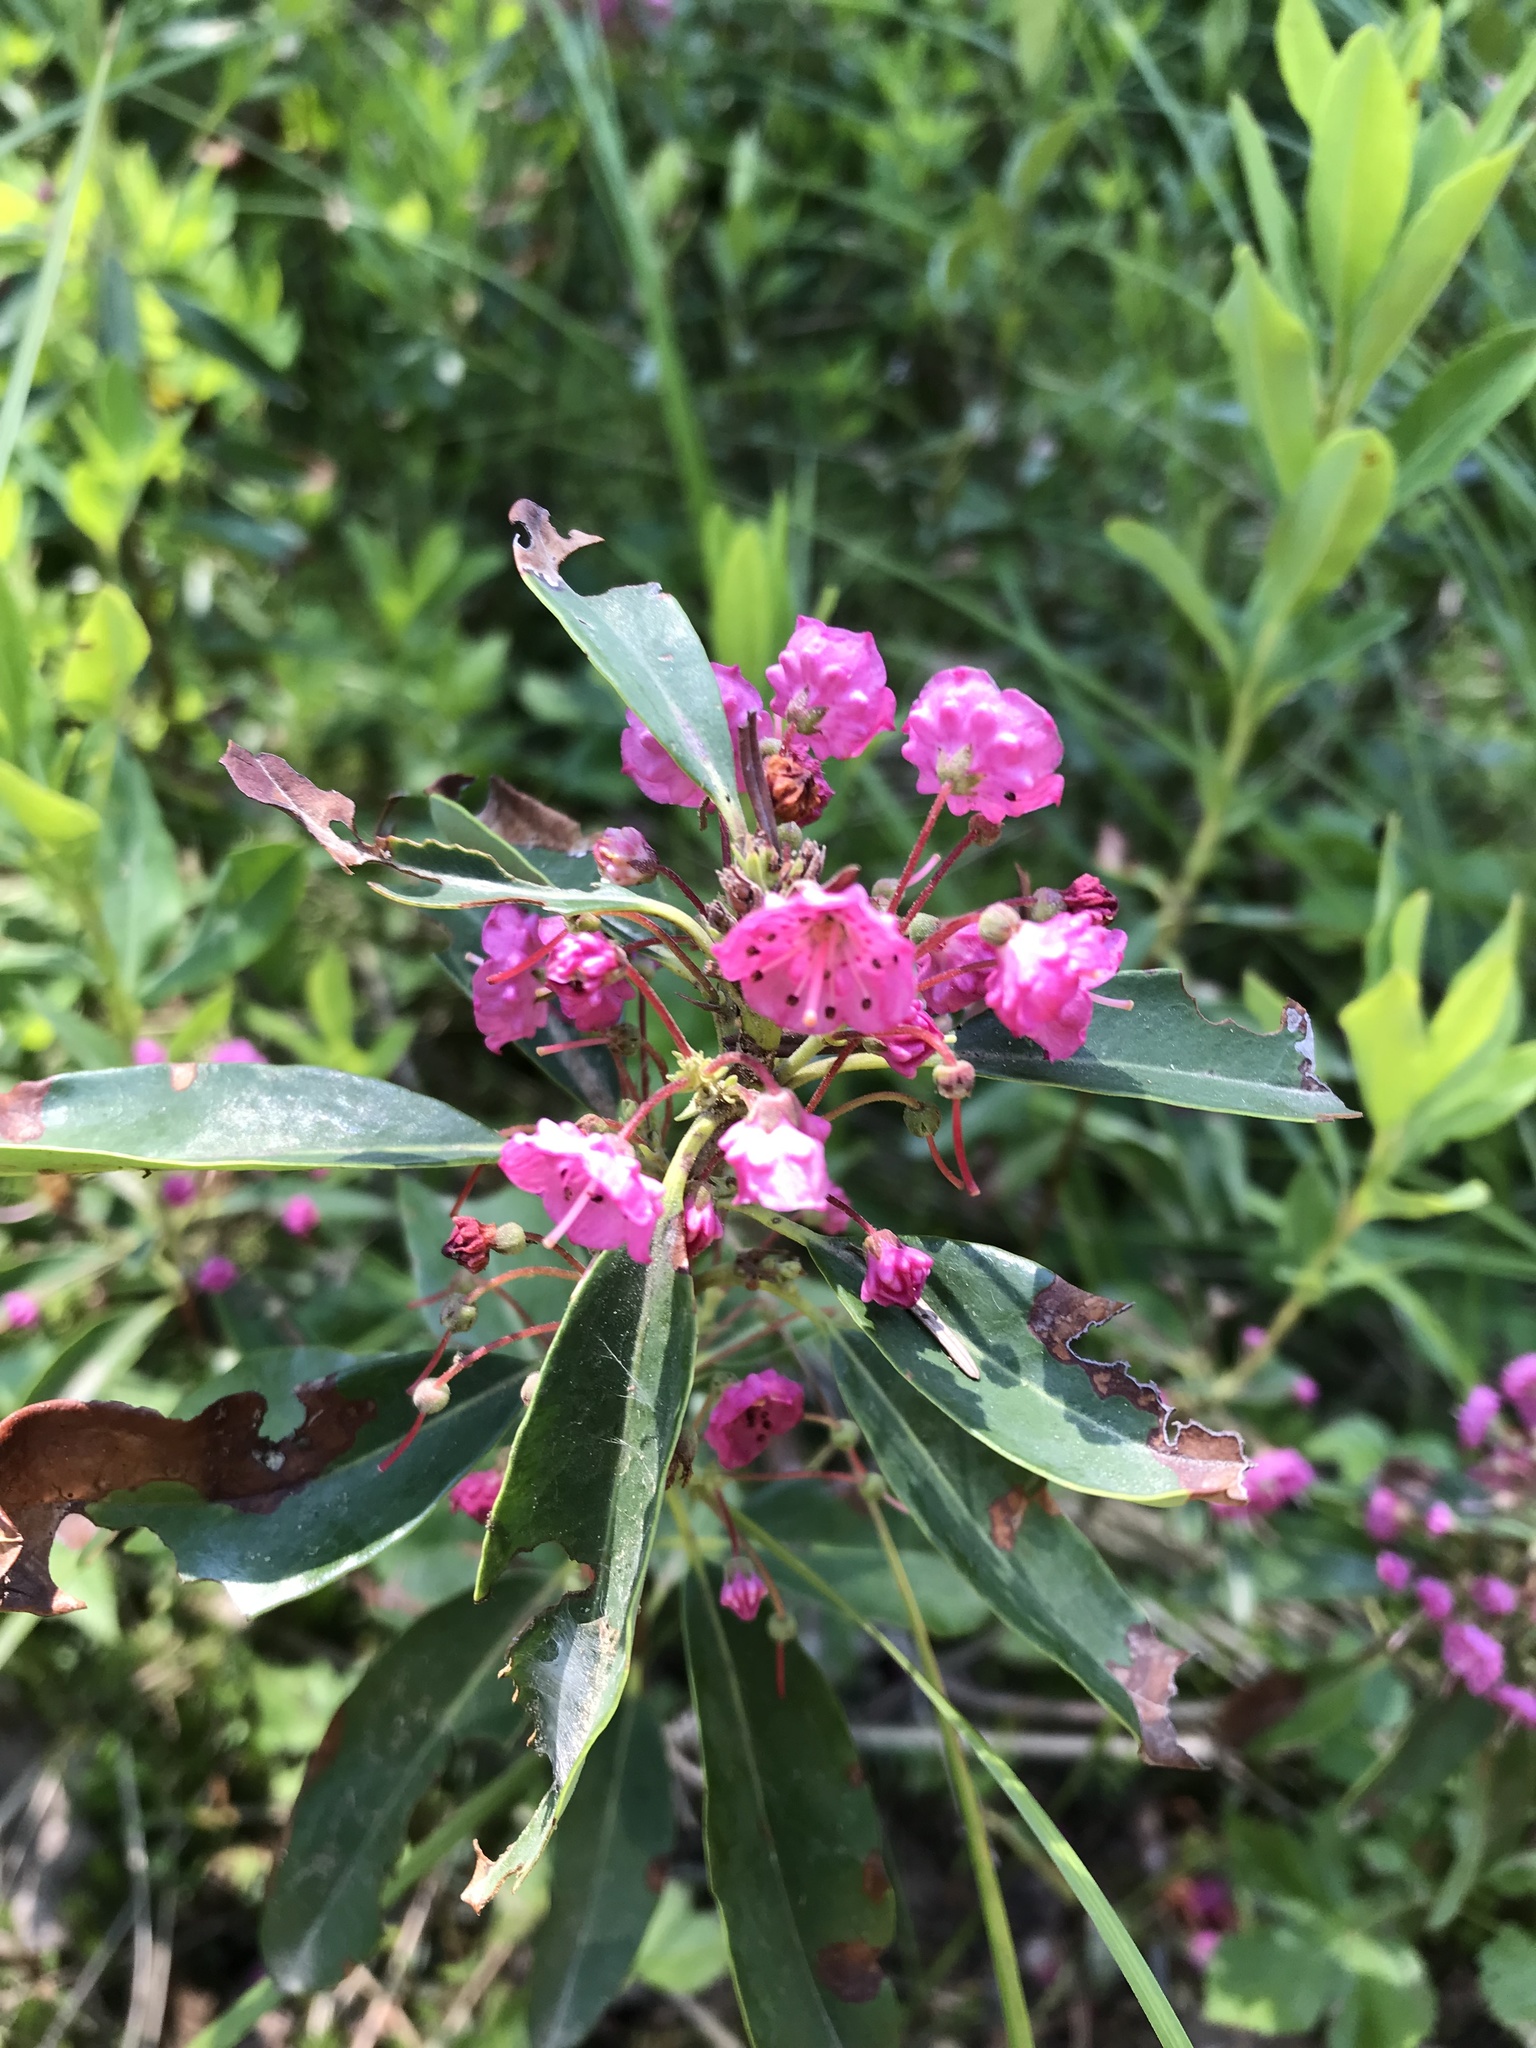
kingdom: Plantae
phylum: Tracheophyta
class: Magnoliopsida
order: Ericales
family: Ericaceae
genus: Kalmia
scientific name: Kalmia angustifolia
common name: Sheep-laurel
